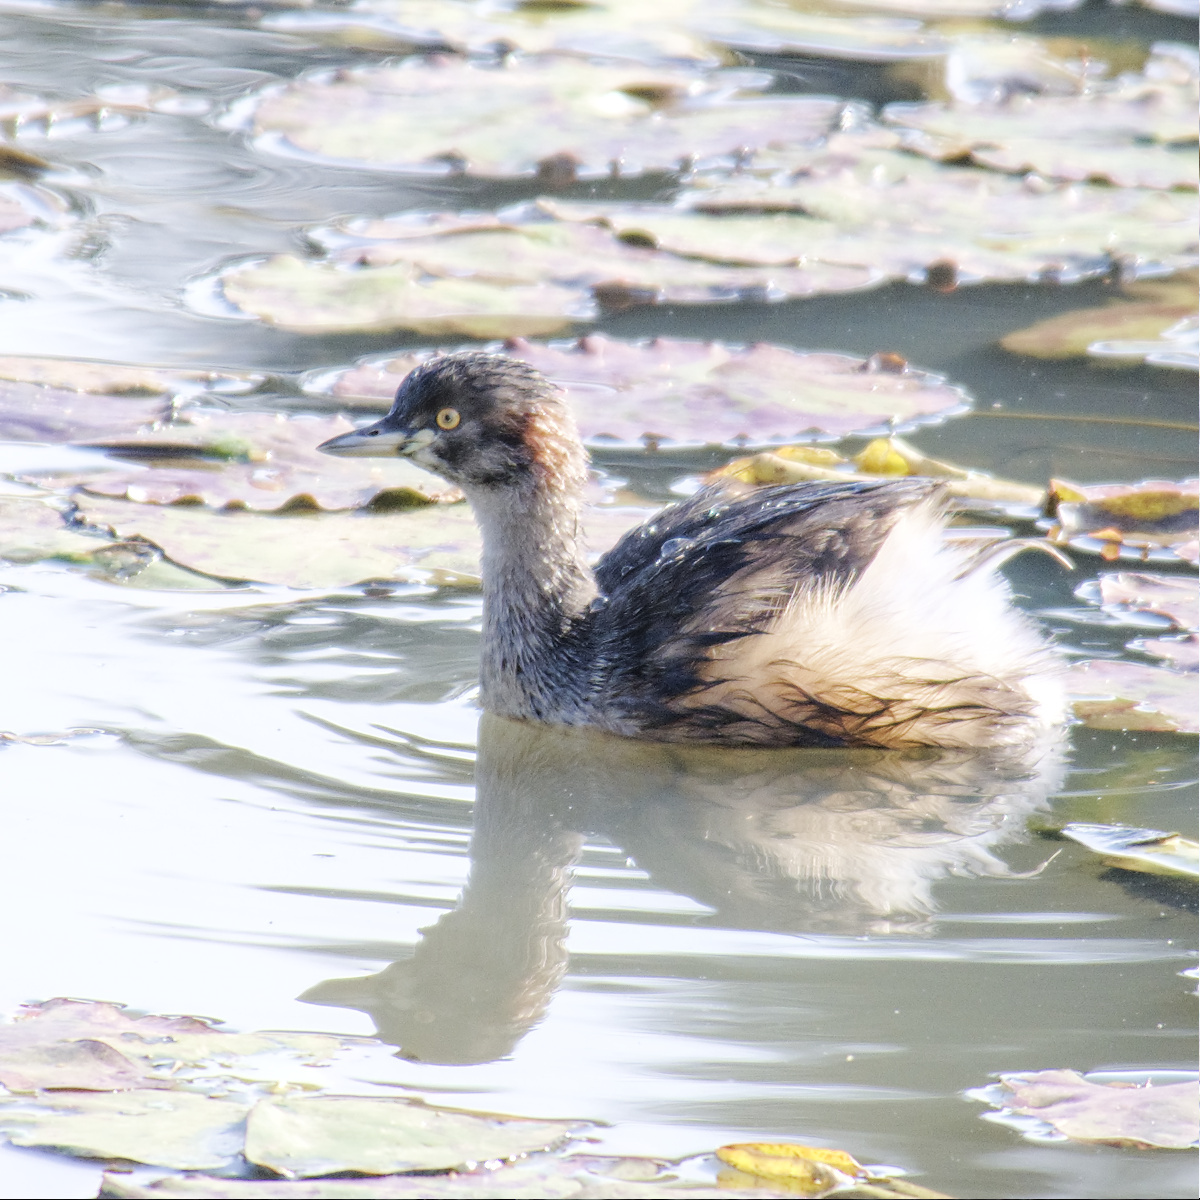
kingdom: Animalia
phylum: Chordata
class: Aves
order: Podicipediformes
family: Podicipedidae
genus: Tachybaptus
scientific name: Tachybaptus novaehollandiae
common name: Australasian grebe
